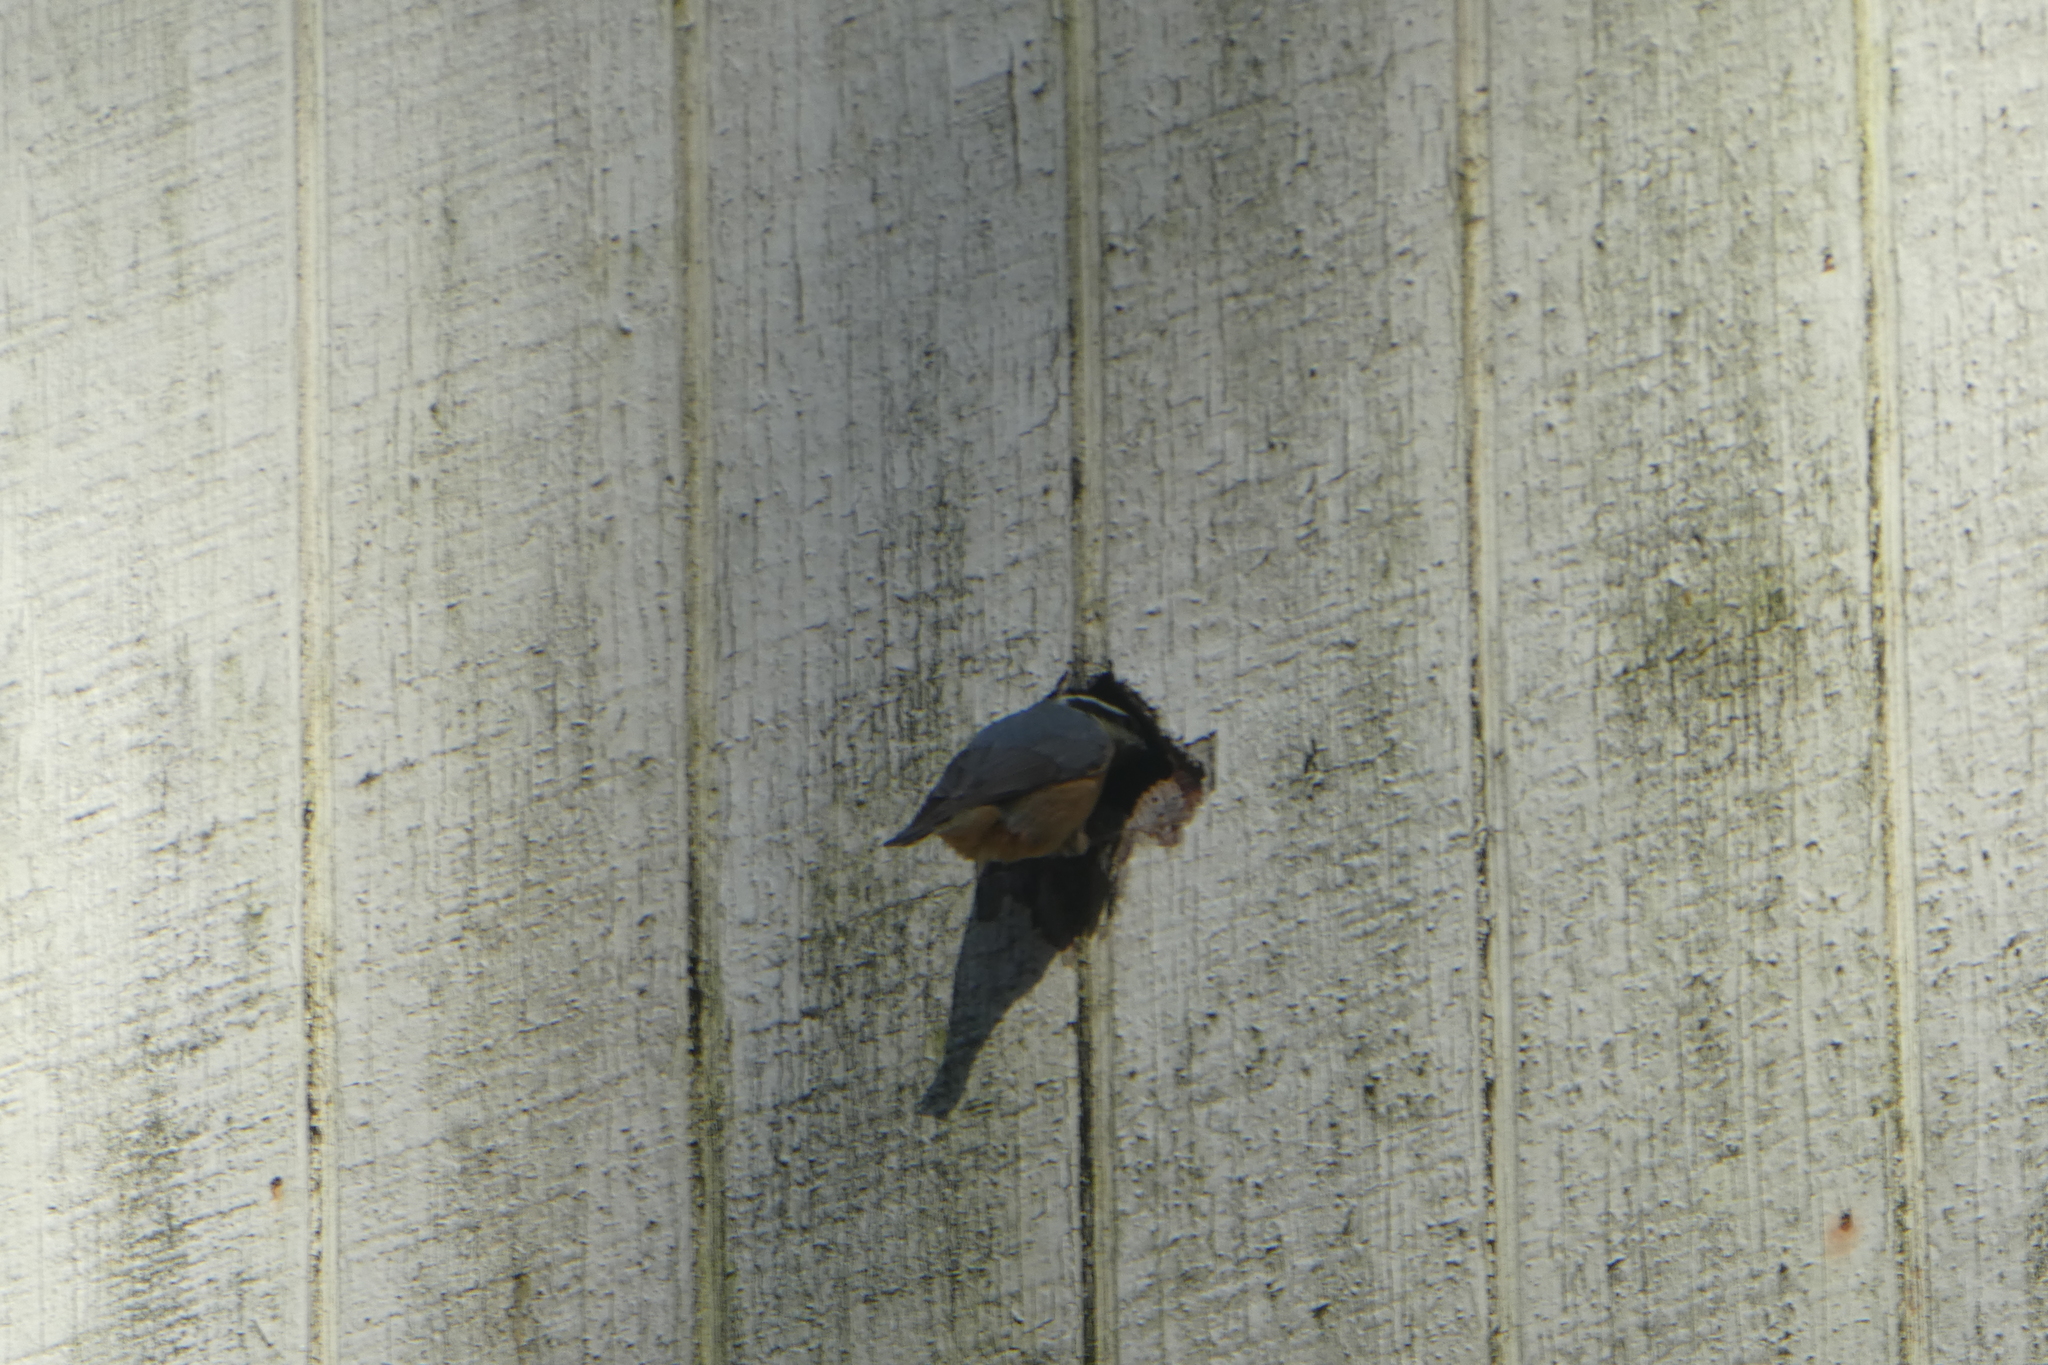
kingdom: Animalia
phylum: Chordata
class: Aves
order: Passeriformes
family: Sittidae
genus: Sitta
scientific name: Sitta canadensis
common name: Red-breasted nuthatch
